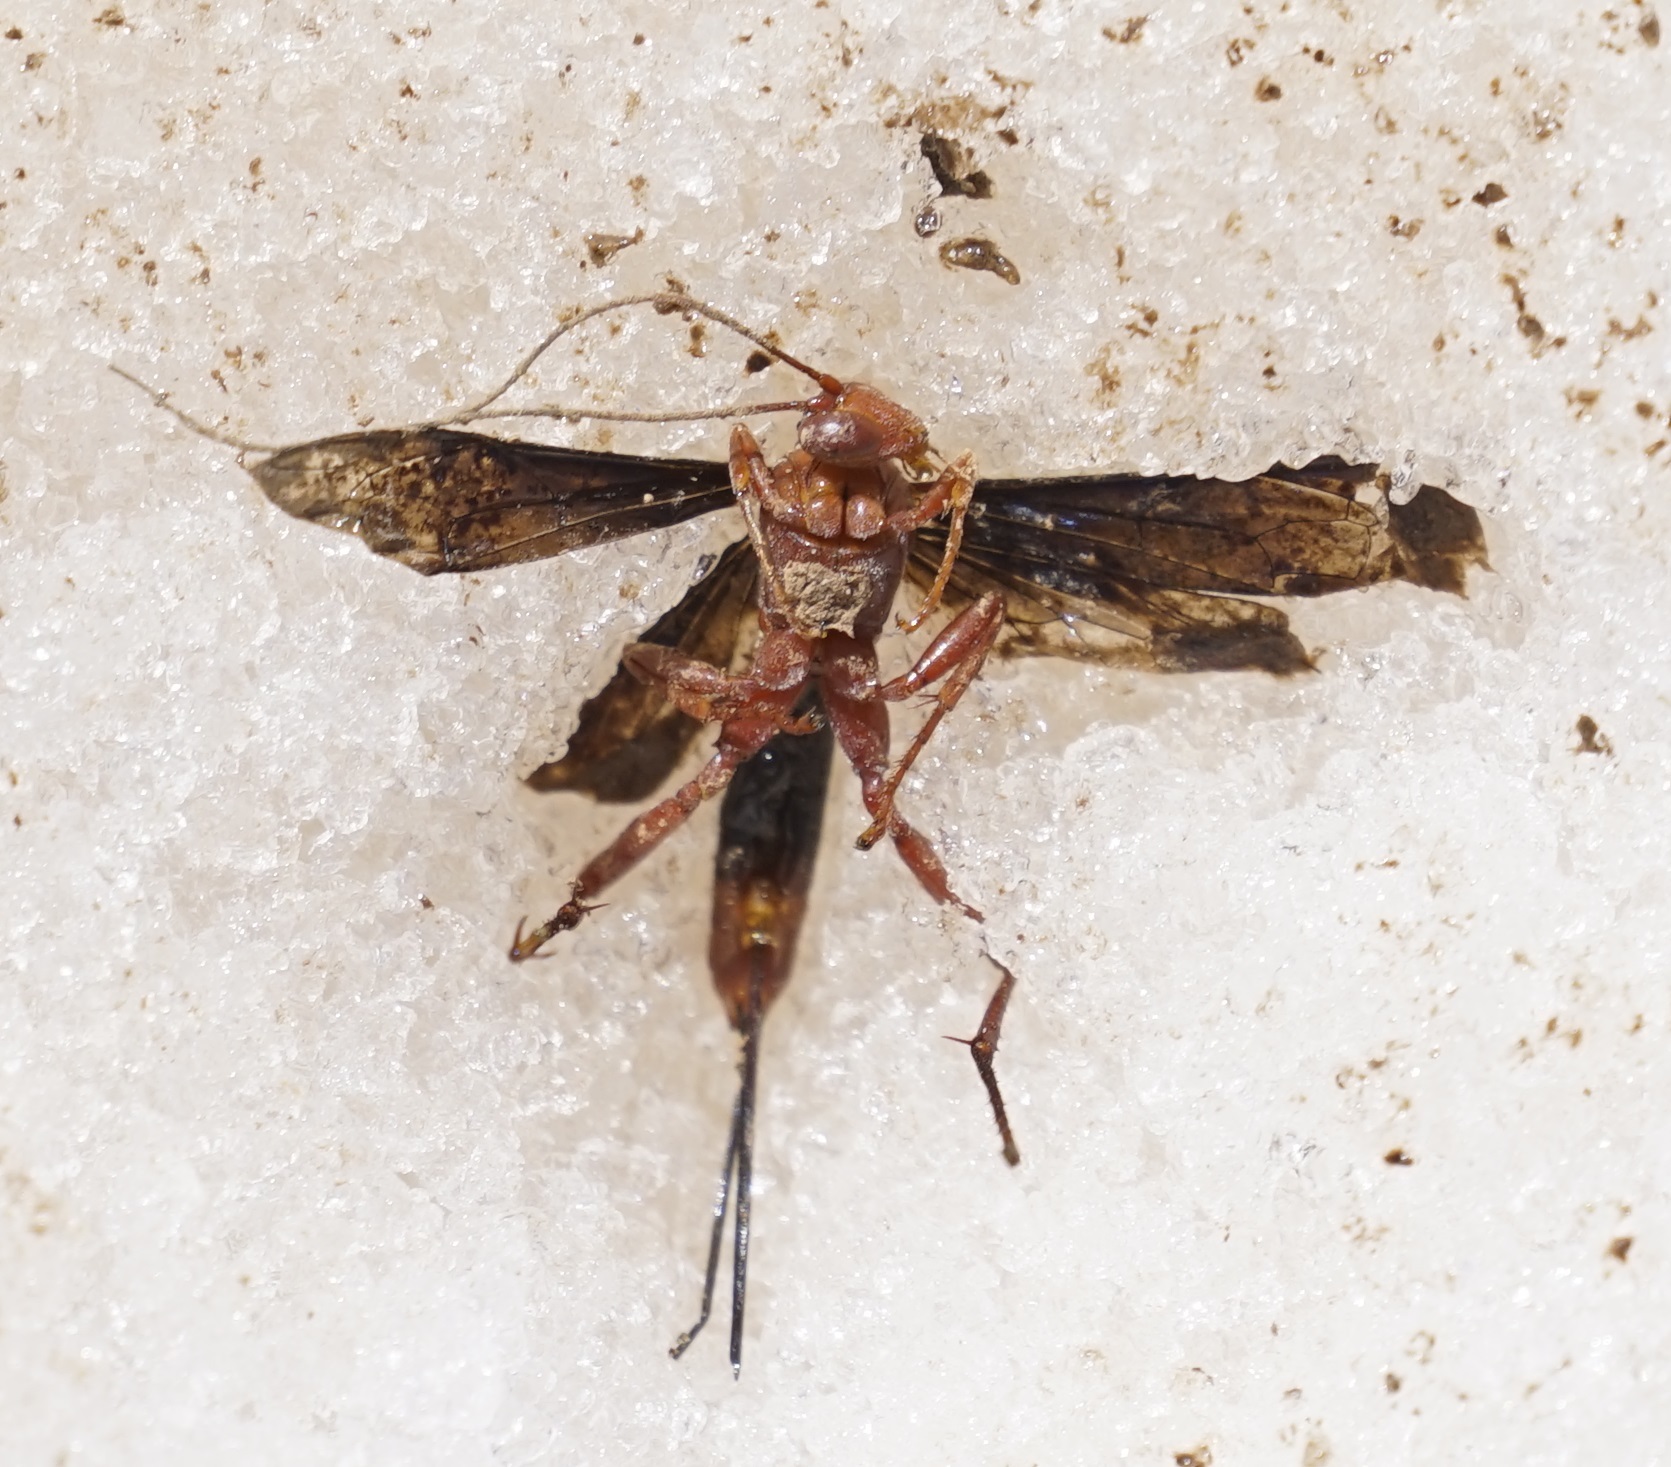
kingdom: Animalia
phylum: Arthropoda
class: Insecta
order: Hymenoptera
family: Ichneumonidae
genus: Lissopimpla
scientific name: Lissopimpla excelsa
